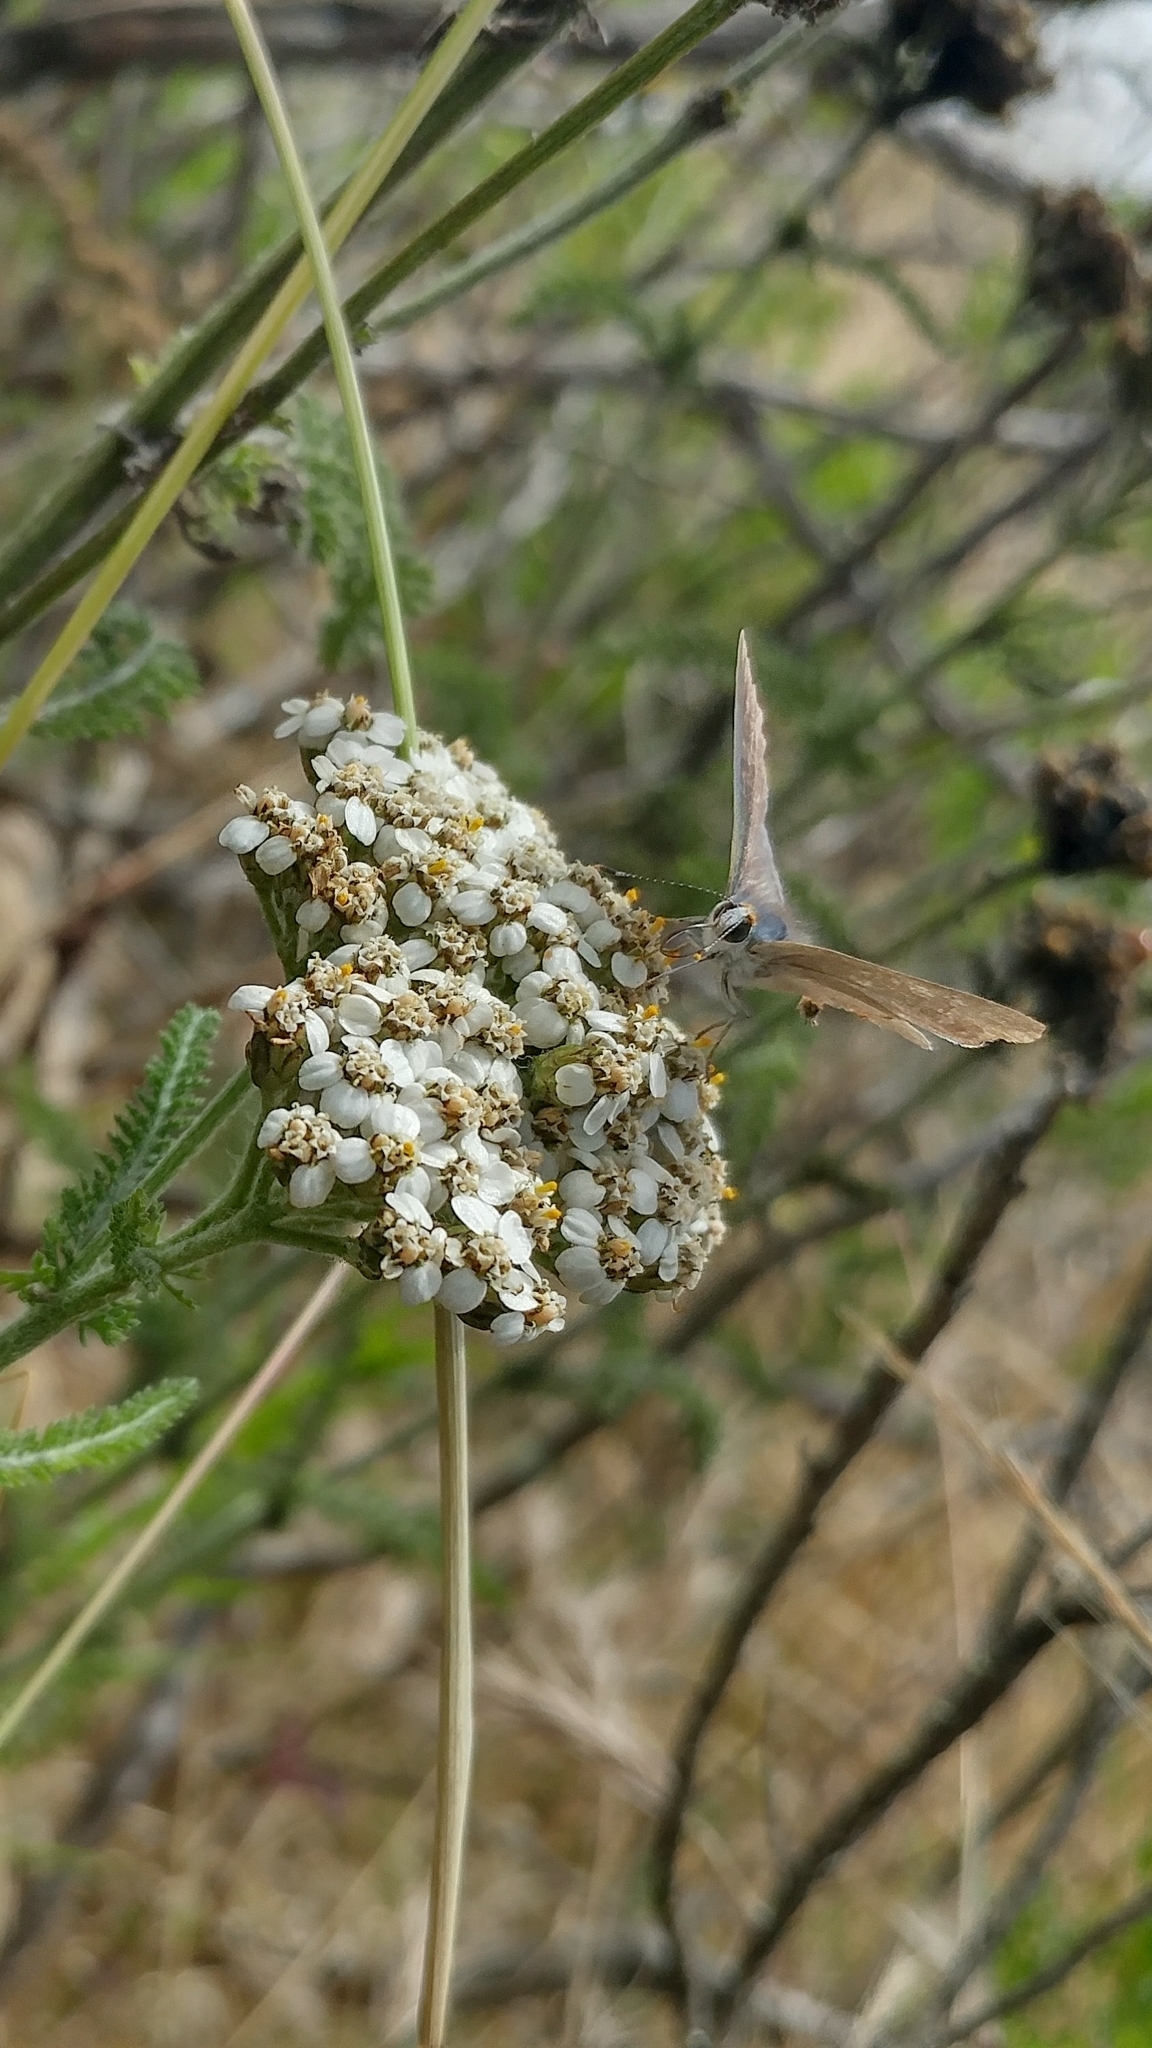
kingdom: Animalia
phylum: Arthropoda
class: Insecta
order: Lepidoptera
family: Lycaenidae
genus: Strymon
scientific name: Strymon melinus
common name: Gray hairstreak
